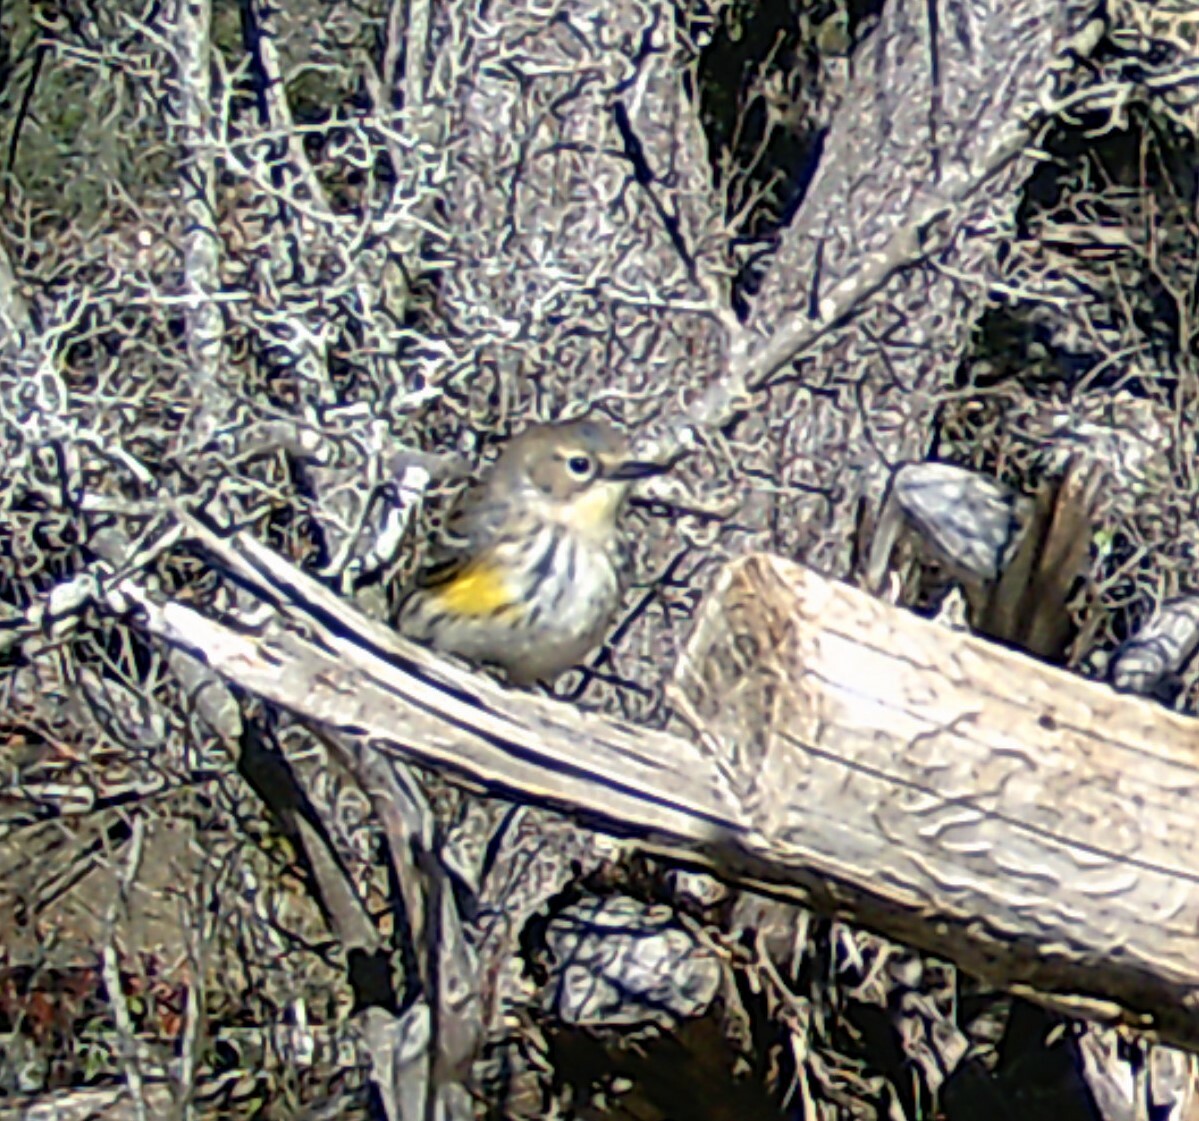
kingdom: Animalia
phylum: Chordata
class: Aves
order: Passeriformes
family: Parulidae
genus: Setophaga
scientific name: Setophaga coronata
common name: Myrtle warbler
